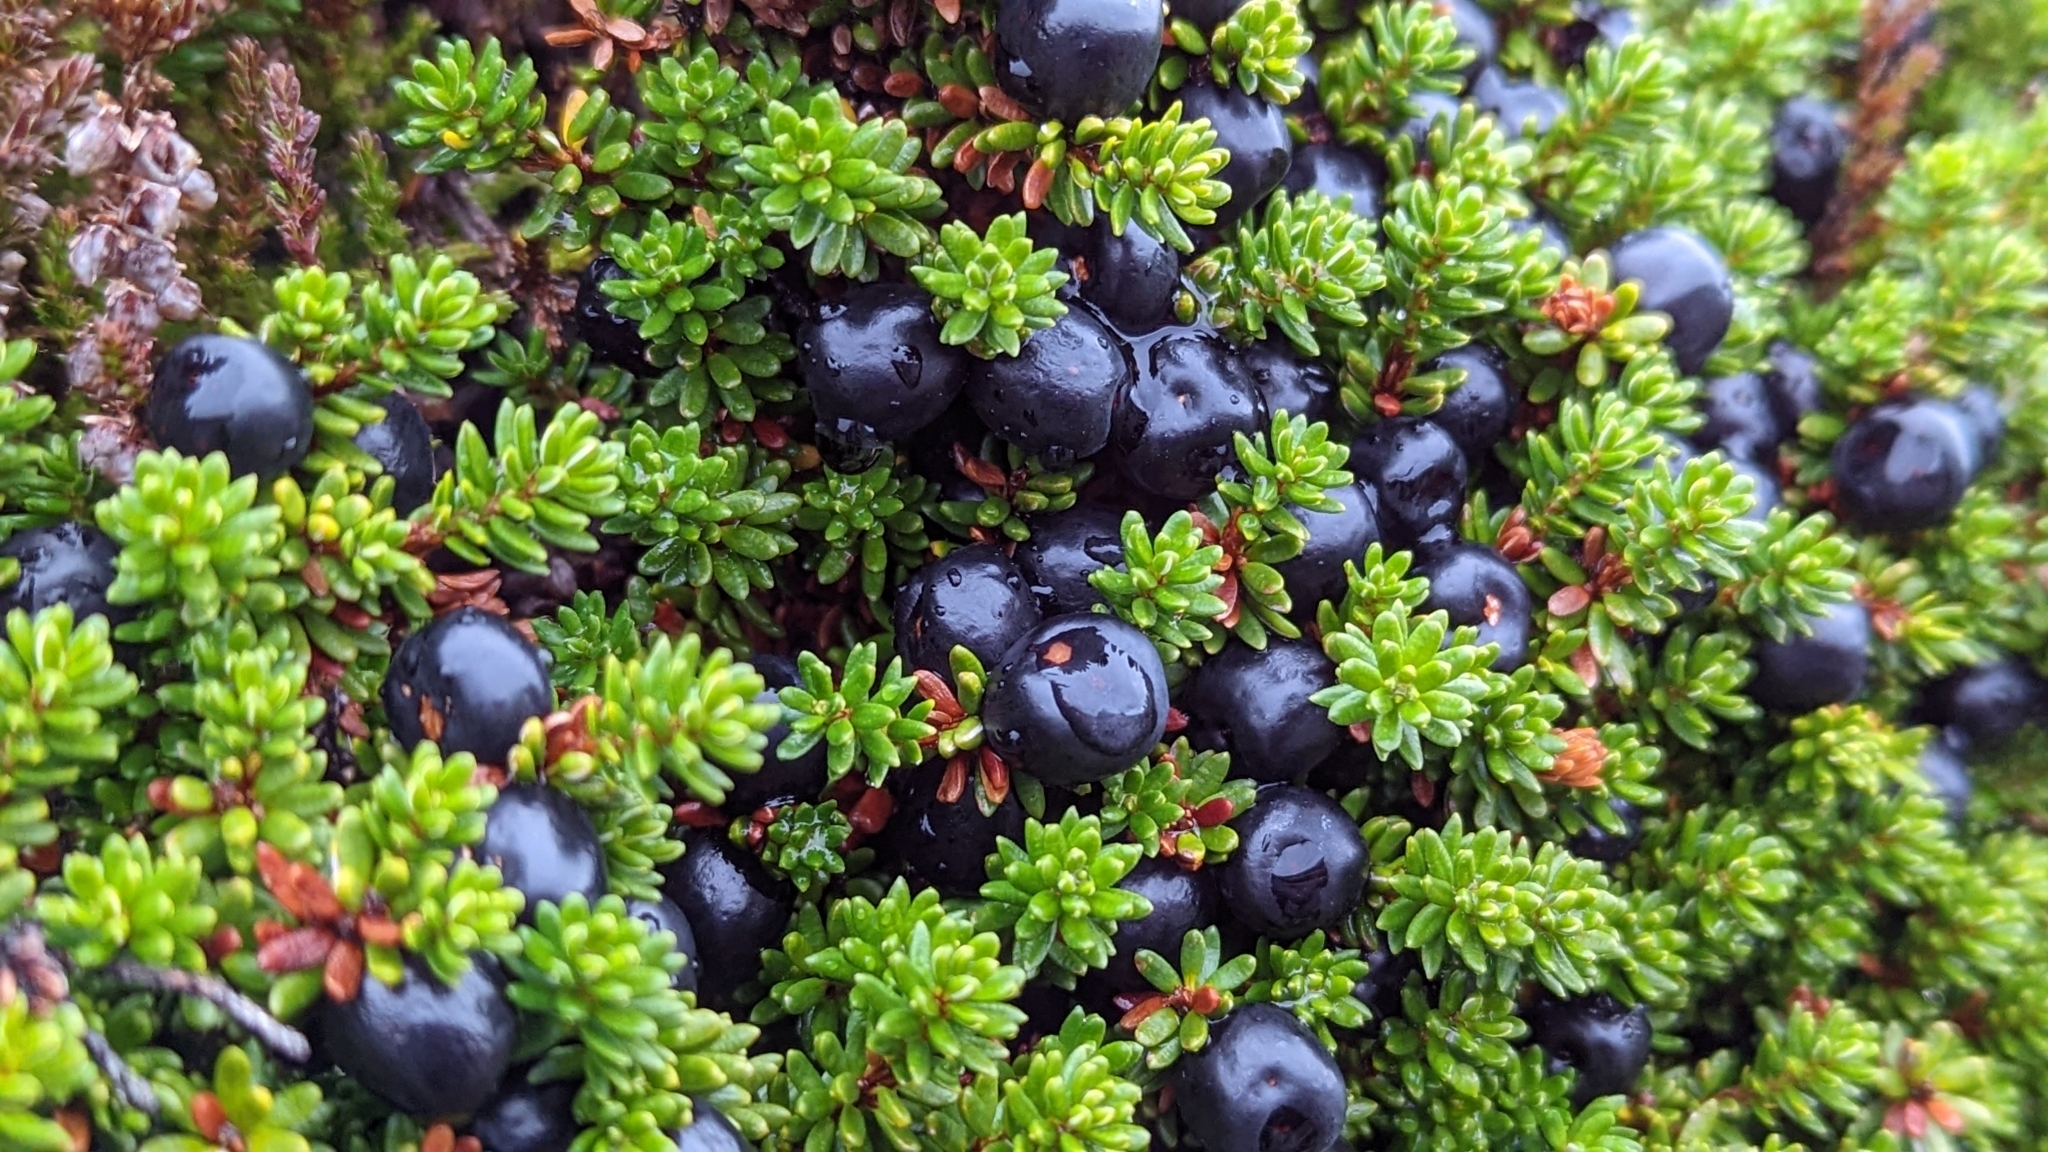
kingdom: Plantae
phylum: Tracheophyta
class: Magnoliopsida
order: Ericales
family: Ericaceae
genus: Empetrum
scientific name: Empetrum nigrum
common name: Black crowberry
